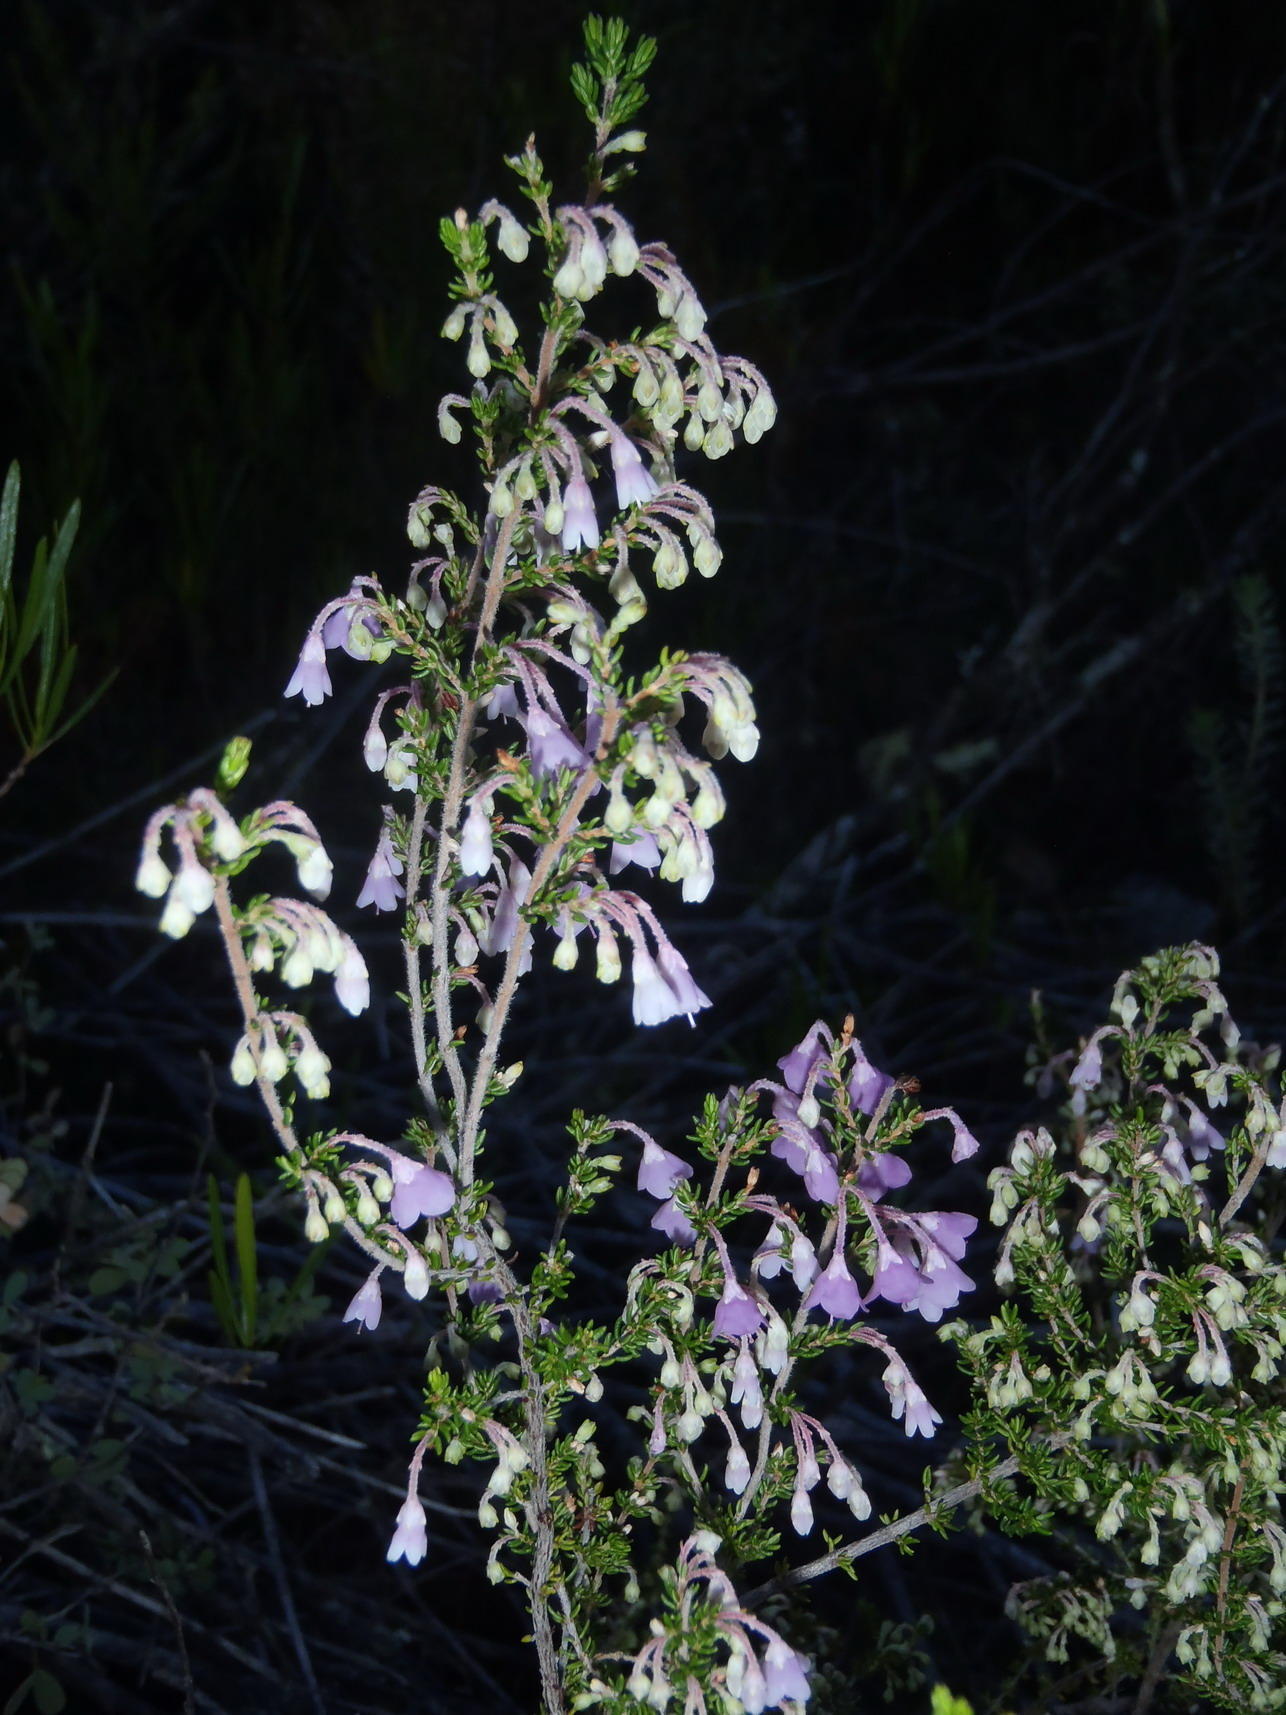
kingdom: Plantae
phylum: Tracheophyta
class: Magnoliopsida
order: Ericales
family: Ericaceae
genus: Erica
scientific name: Erica newdigatei
